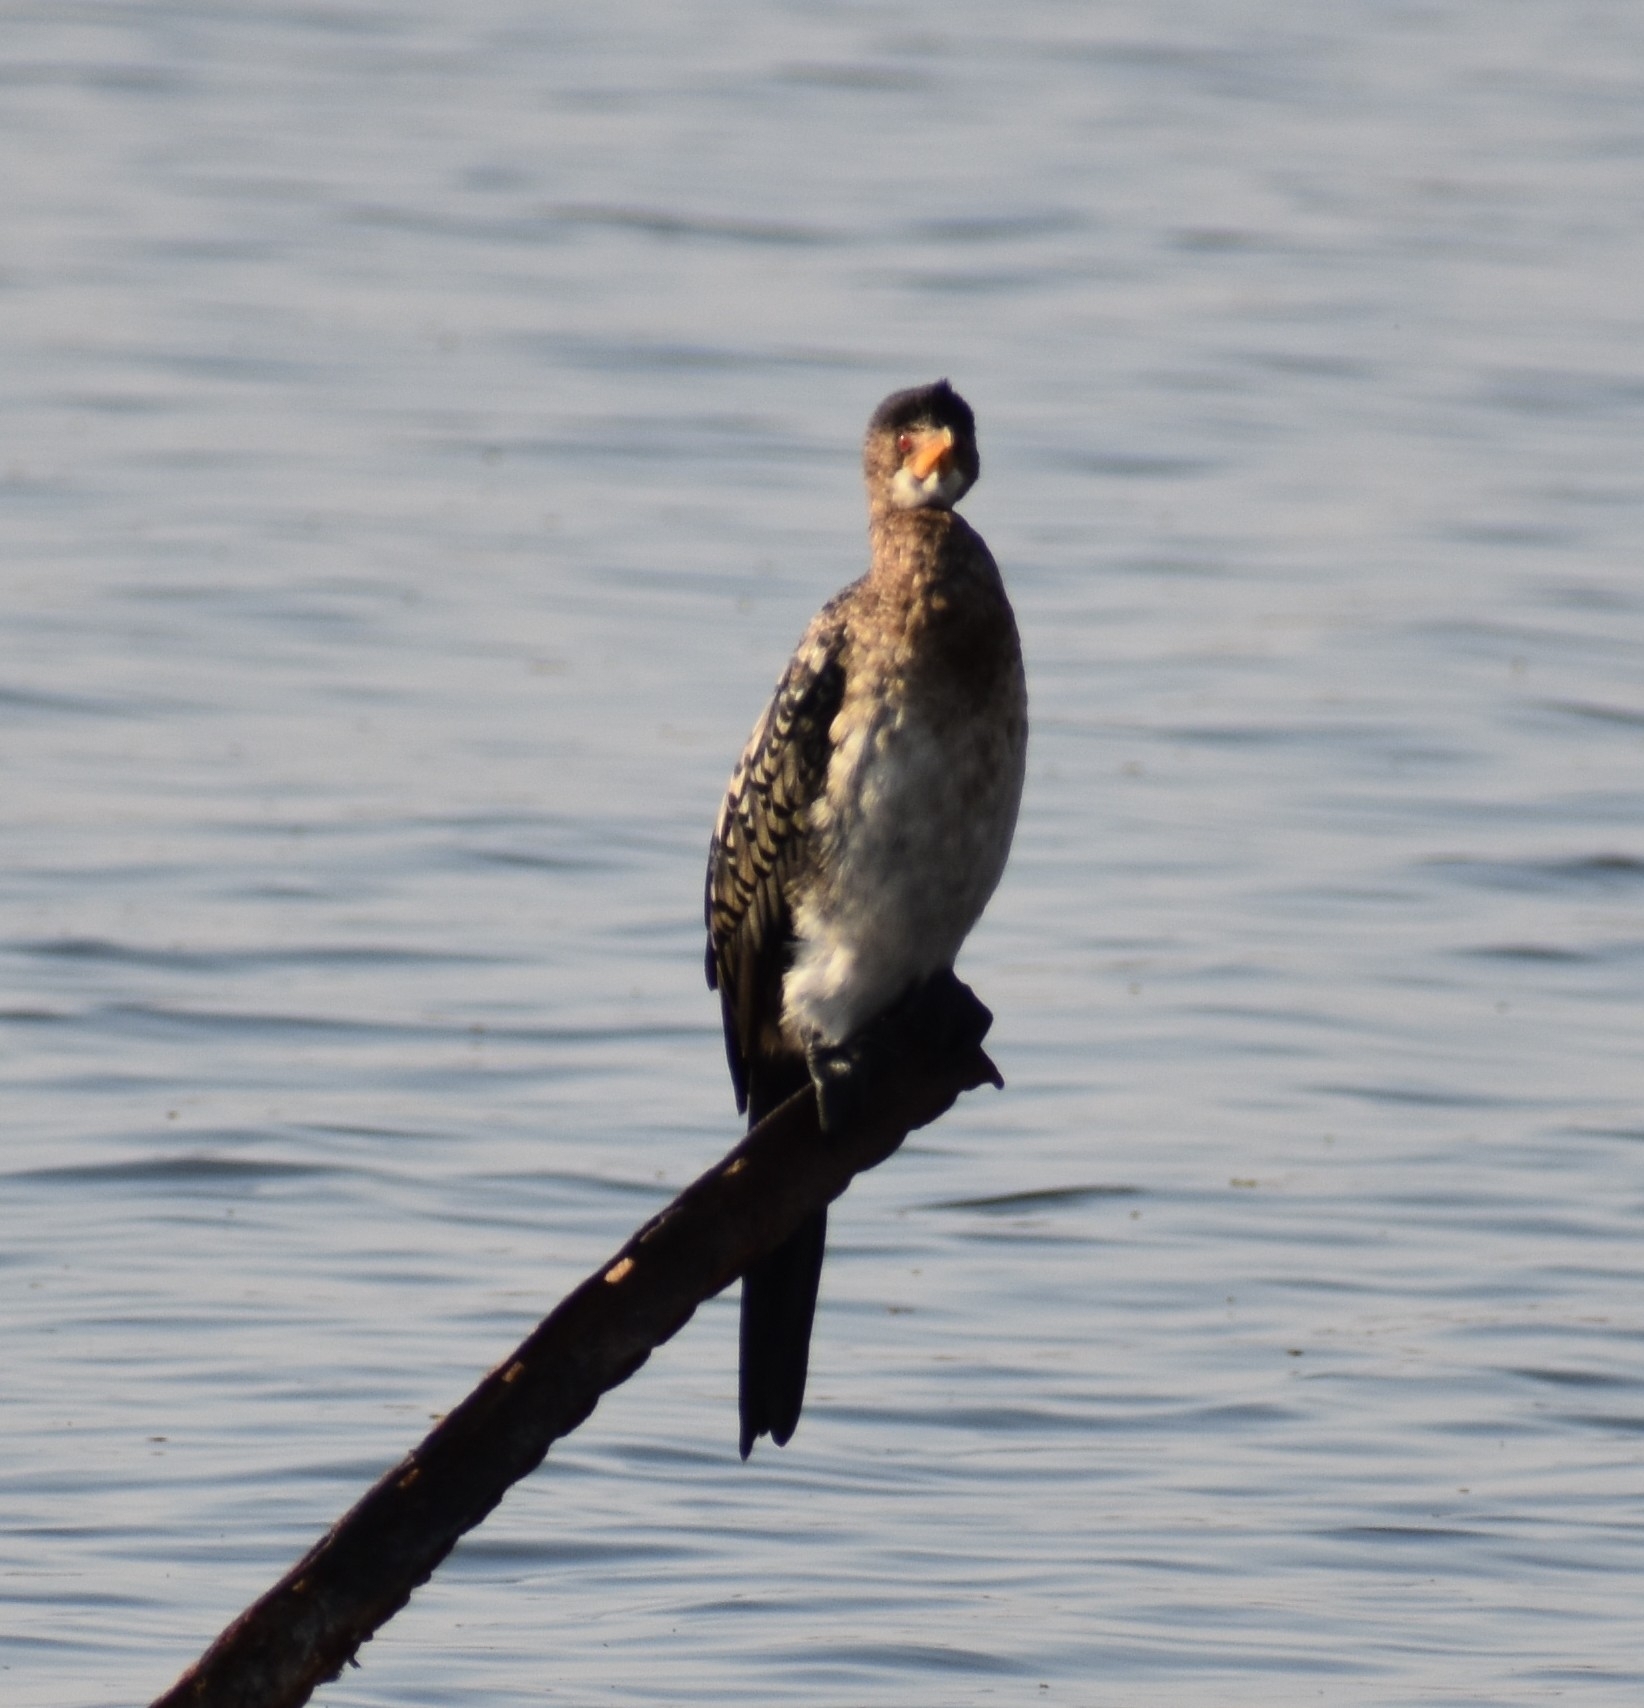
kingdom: Animalia
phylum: Chordata
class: Aves
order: Suliformes
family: Phalacrocoracidae
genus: Phalacrocorax
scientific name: Phalacrocorax carbo
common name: Great cormorant
